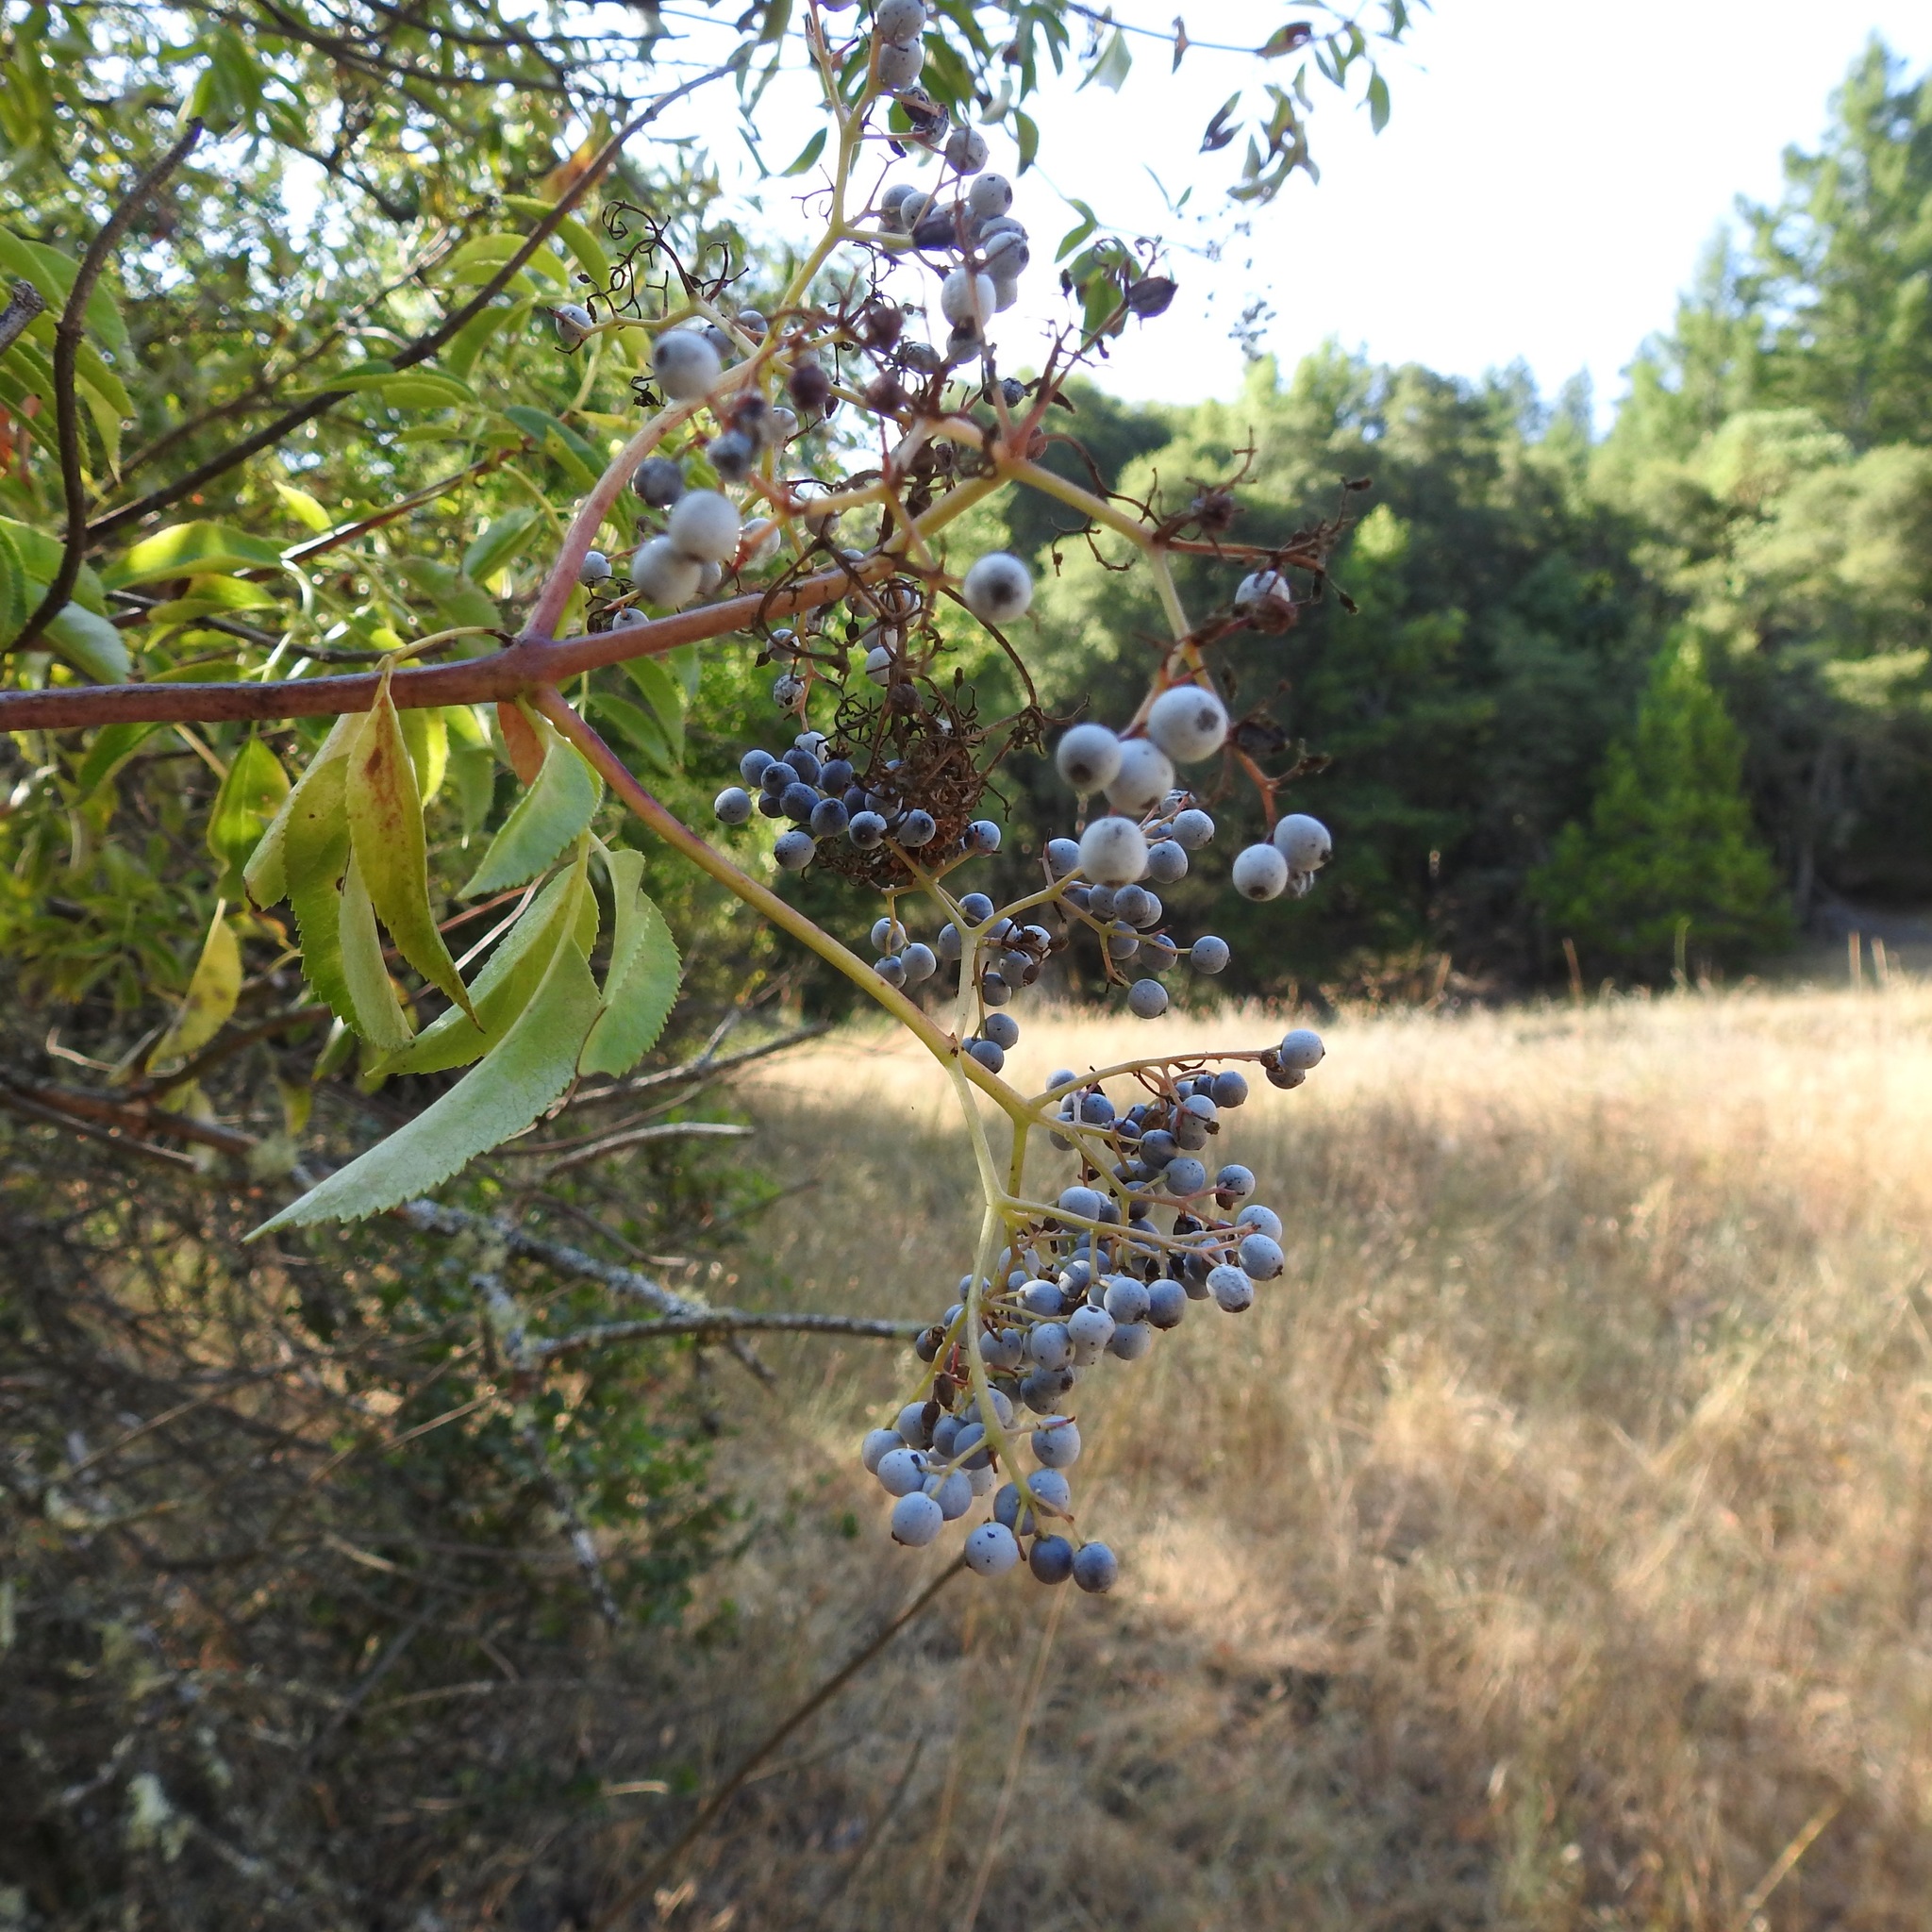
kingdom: Plantae
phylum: Tracheophyta
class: Magnoliopsida
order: Dipsacales
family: Viburnaceae
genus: Sambucus
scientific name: Sambucus cerulea
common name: Blue elder
